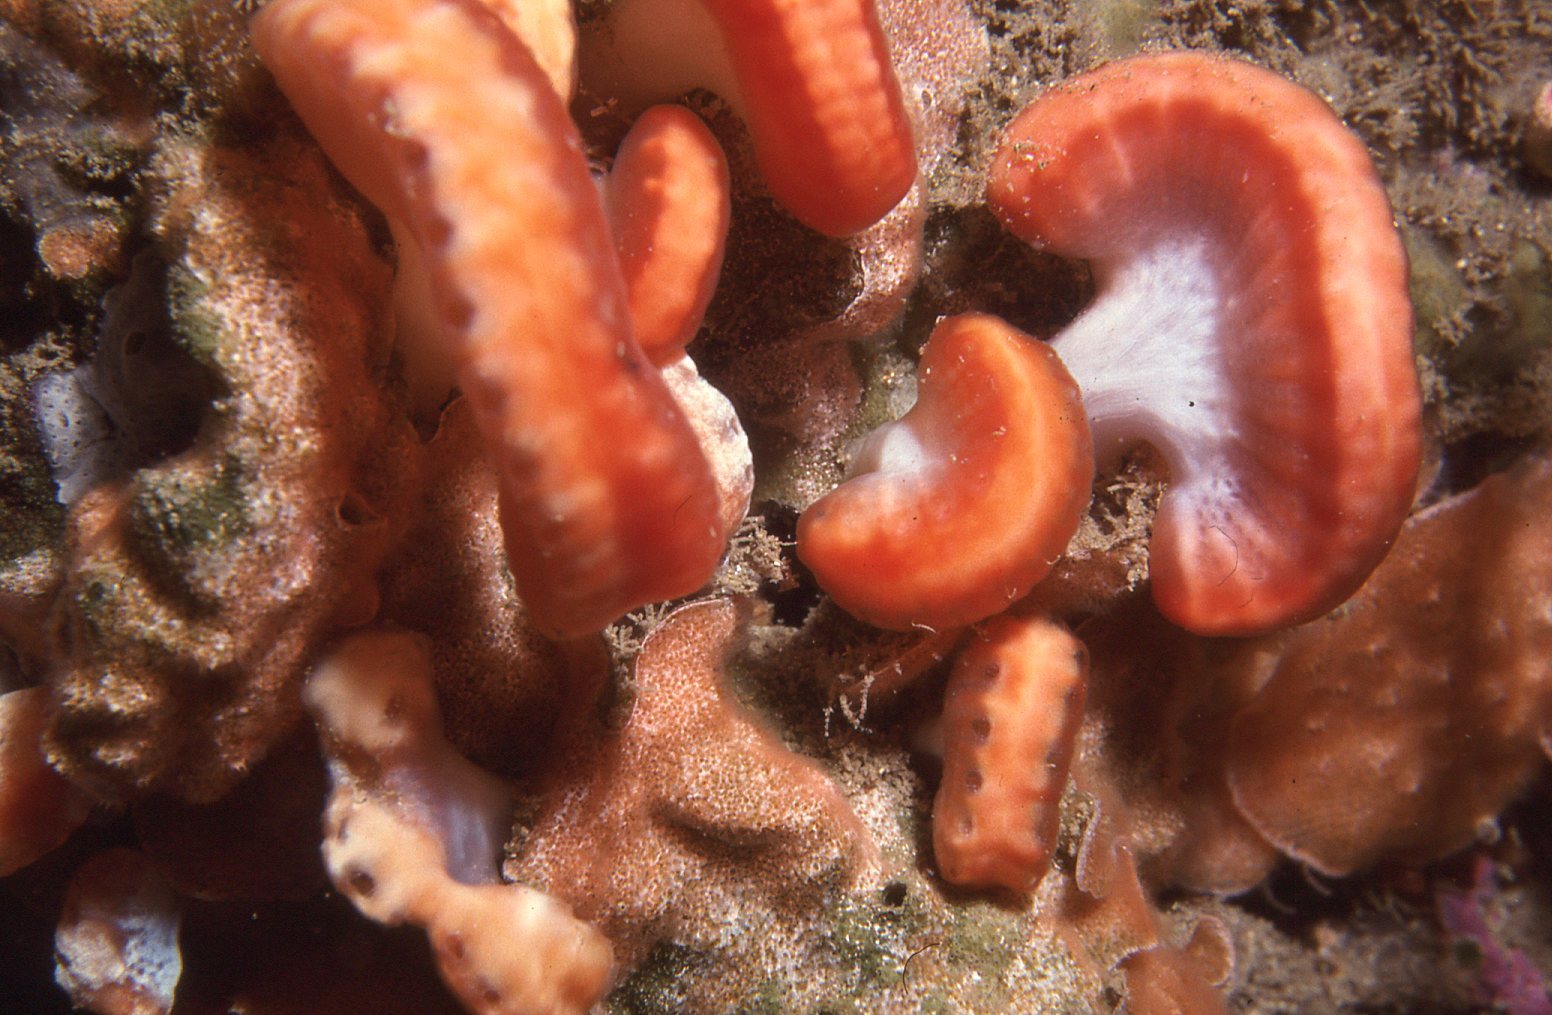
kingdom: Animalia
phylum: Chordata
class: Ascidiacea
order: Aplousobranchia
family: Holozoidae
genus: Sycozoa
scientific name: Sycozoa cerebriformis
